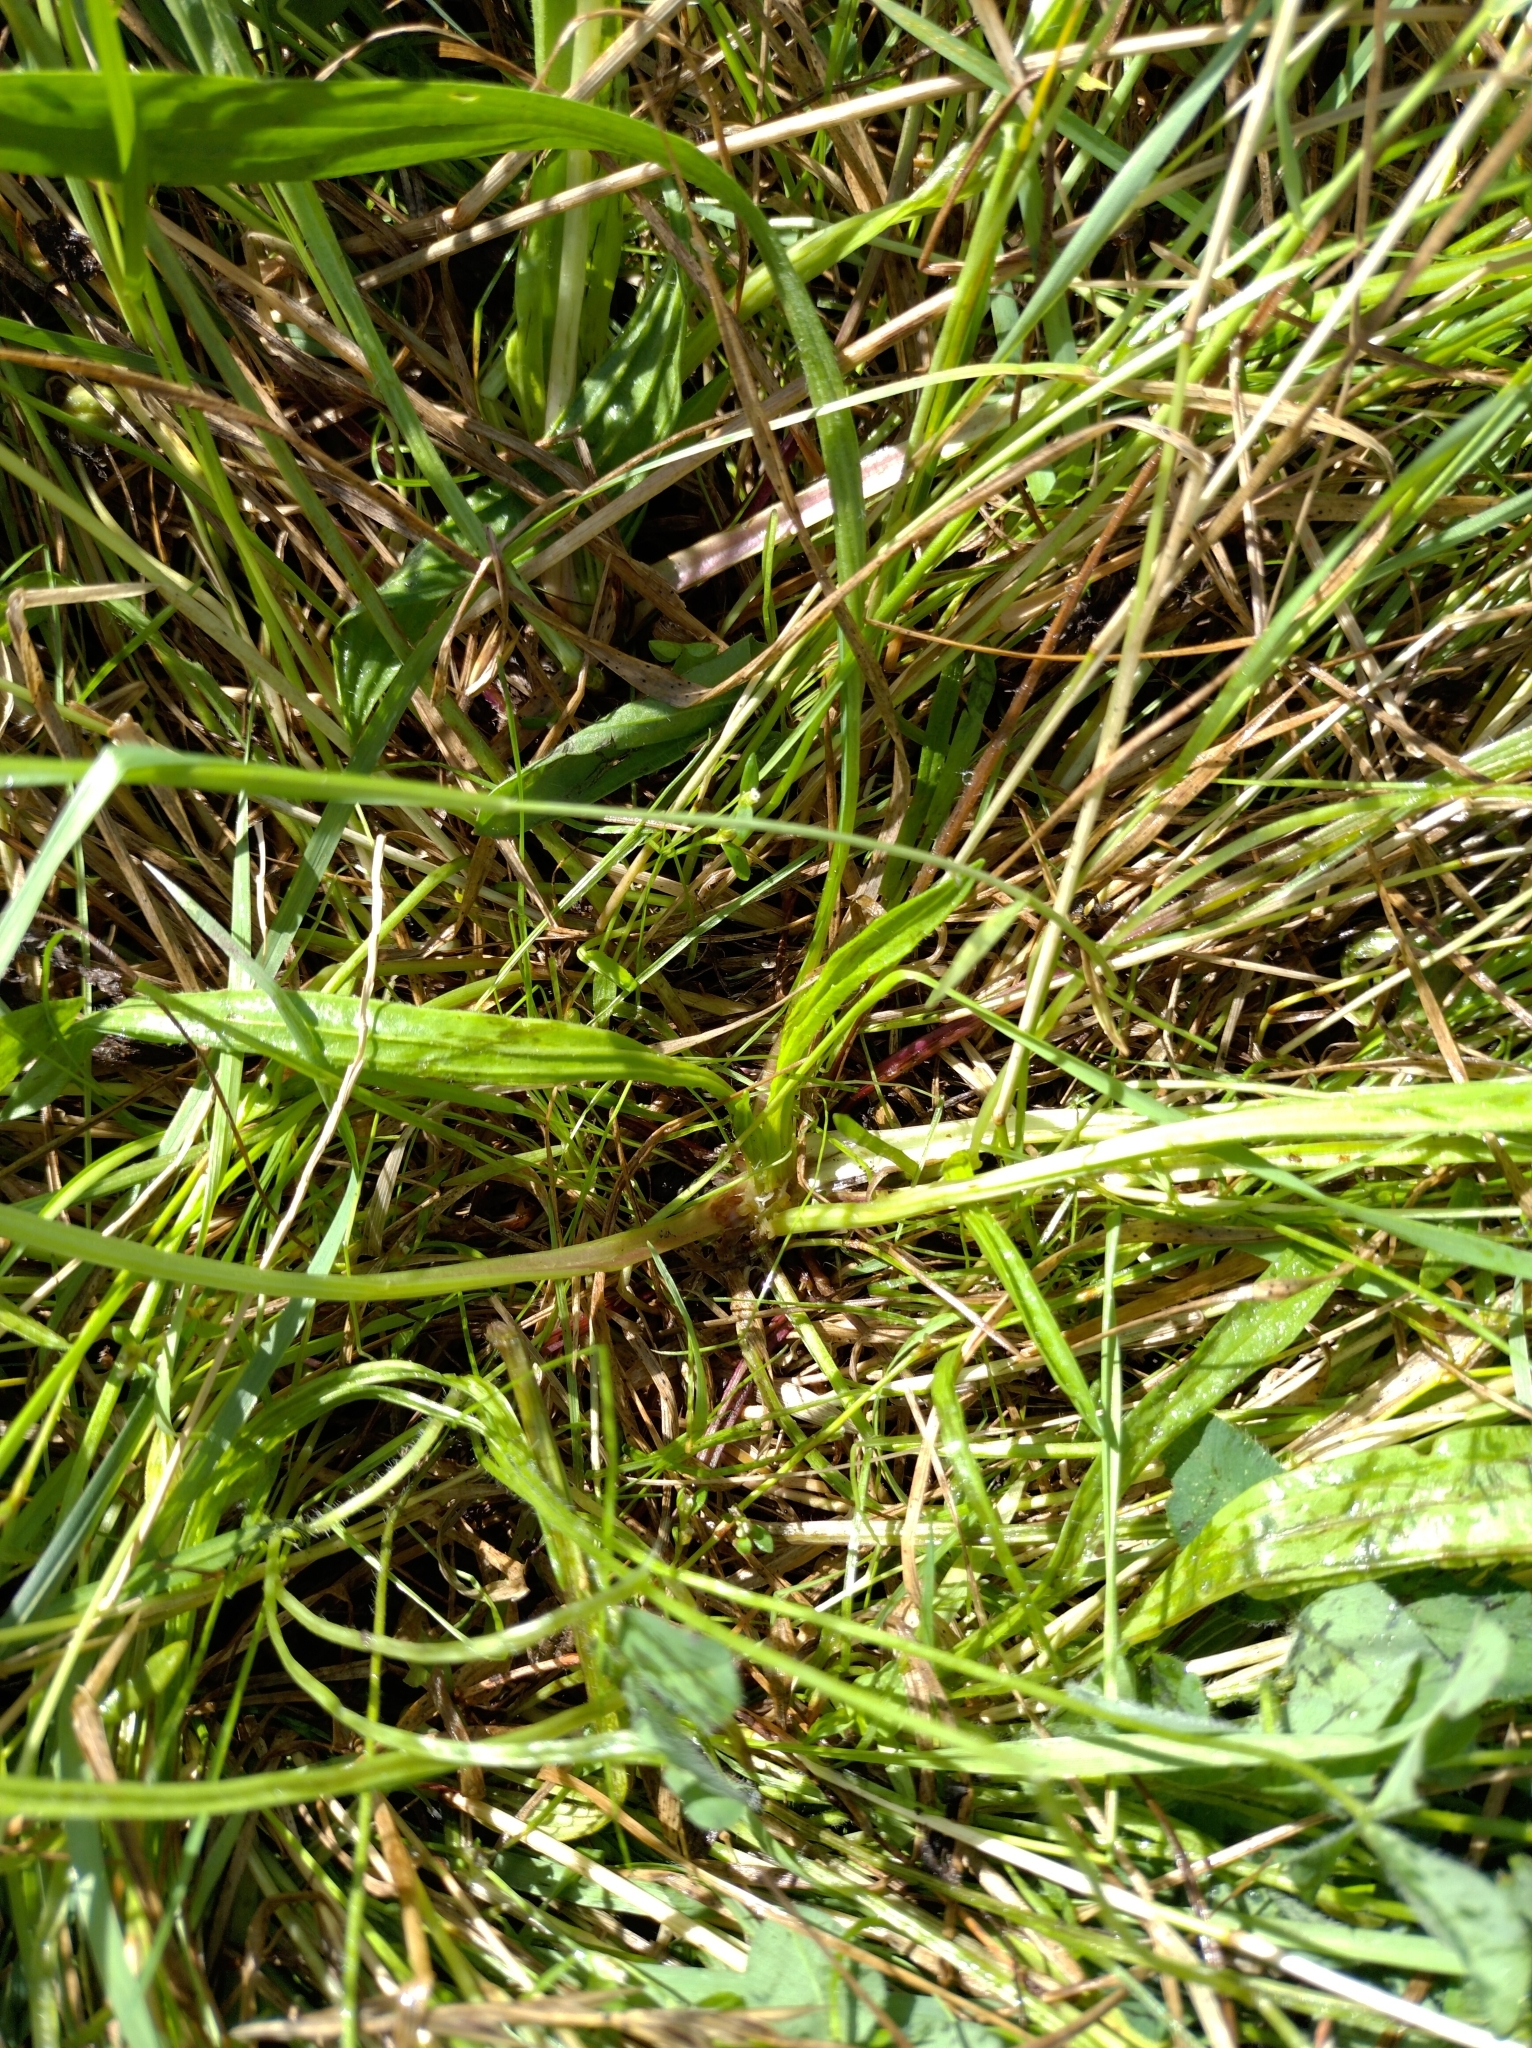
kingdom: Plantae
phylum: Tracheophyta
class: Magnoliopsida
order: Lamiales
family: Plantaginaceae
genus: Plantago
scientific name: Plantago lanceolata
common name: Ribwort plantain
